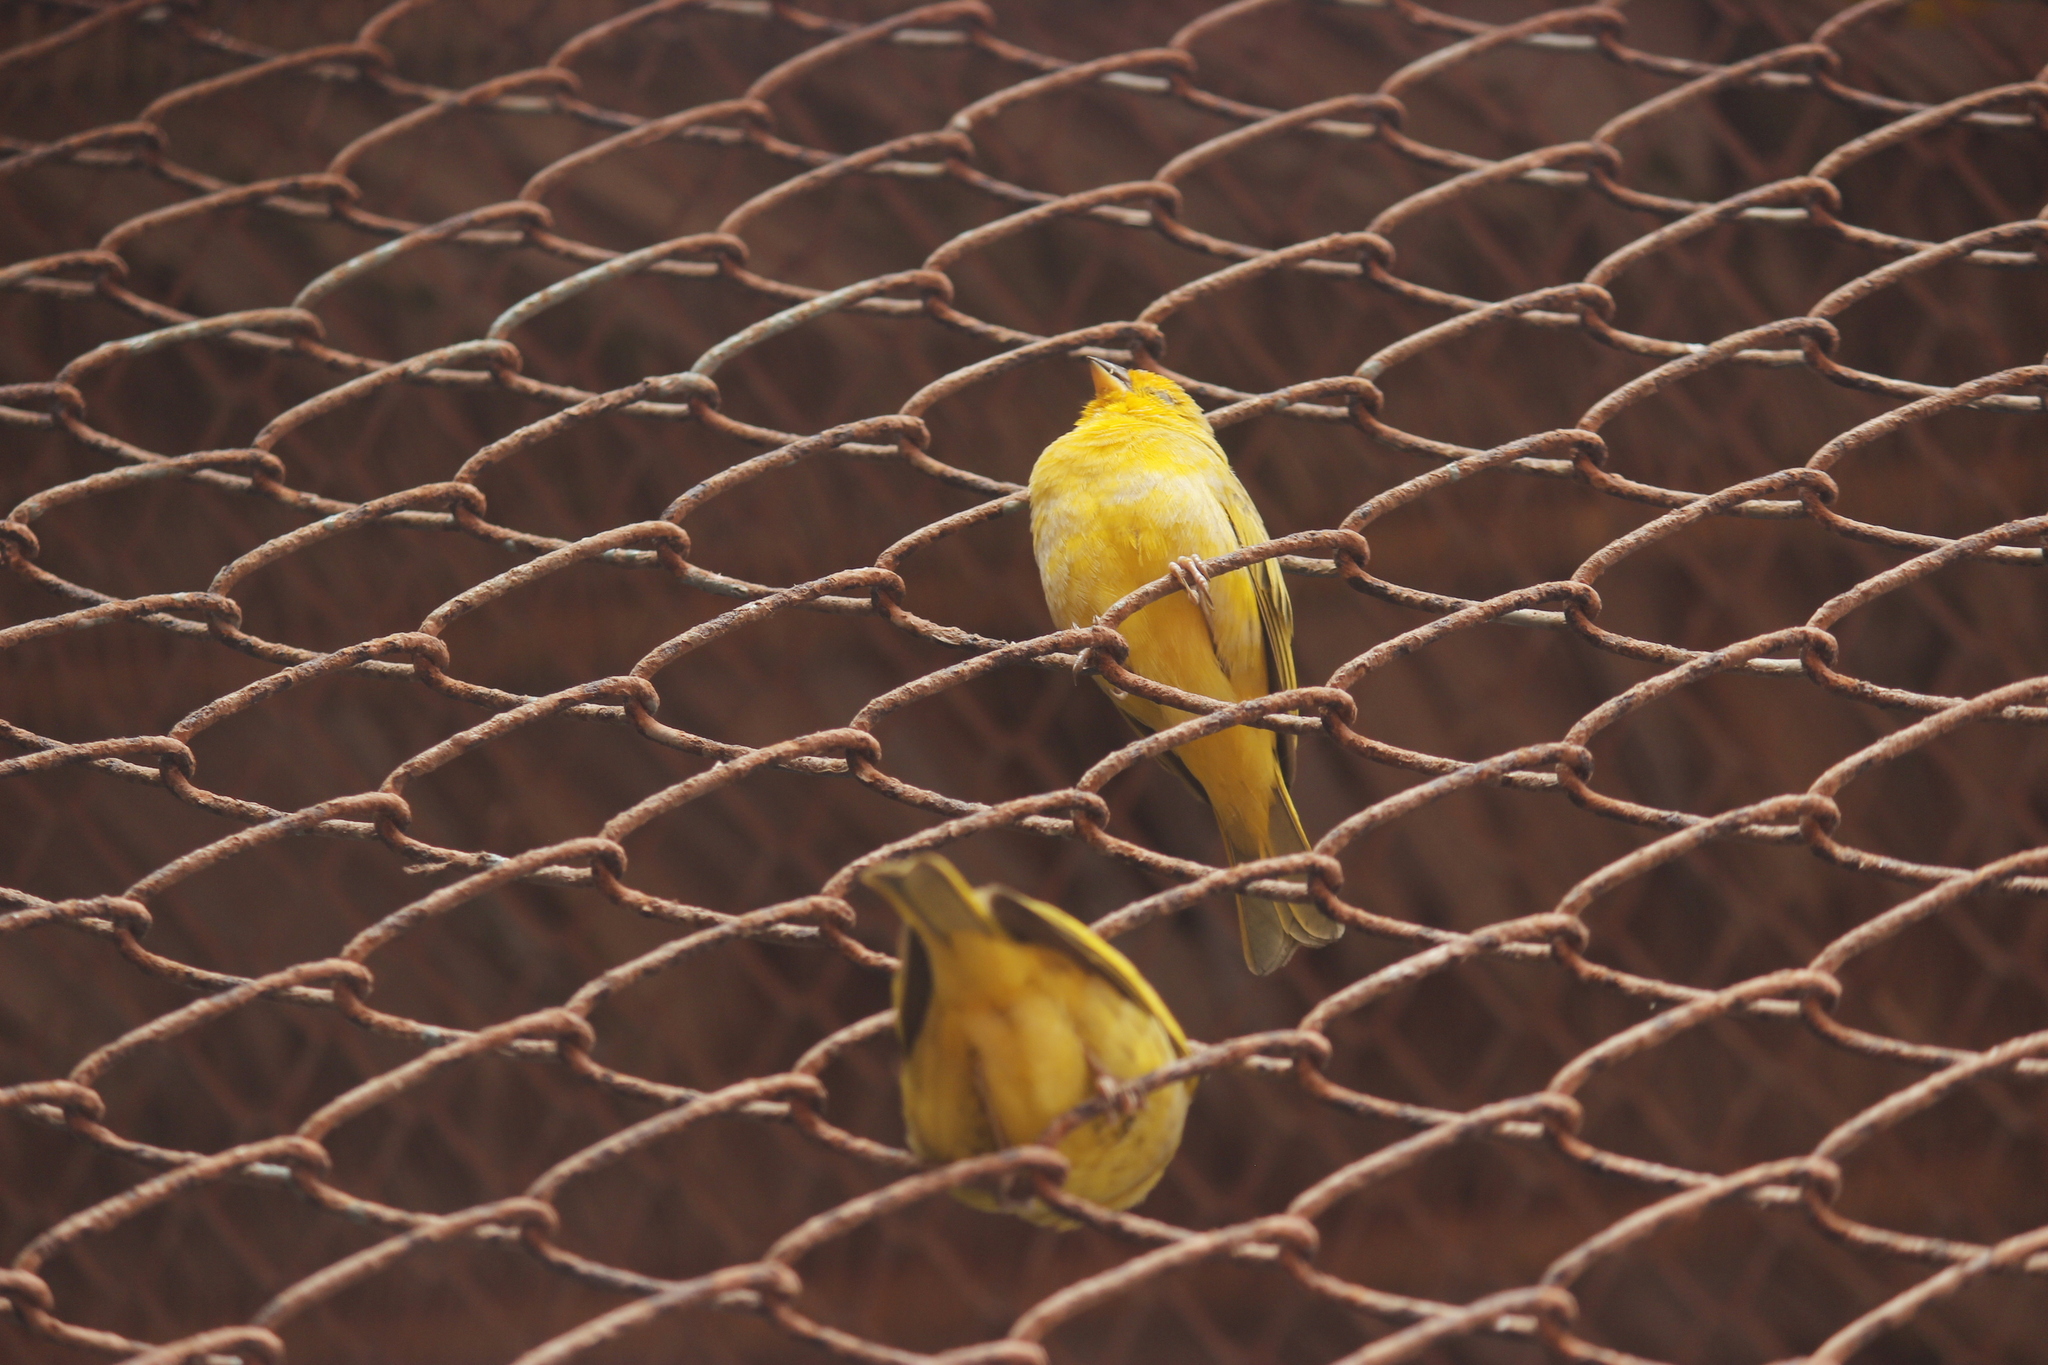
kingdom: Animalia
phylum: Chordata
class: Aves
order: Passeriformes
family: Thraupidae
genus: Sicalis
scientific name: Sicalis flaveola
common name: Saffron finch
